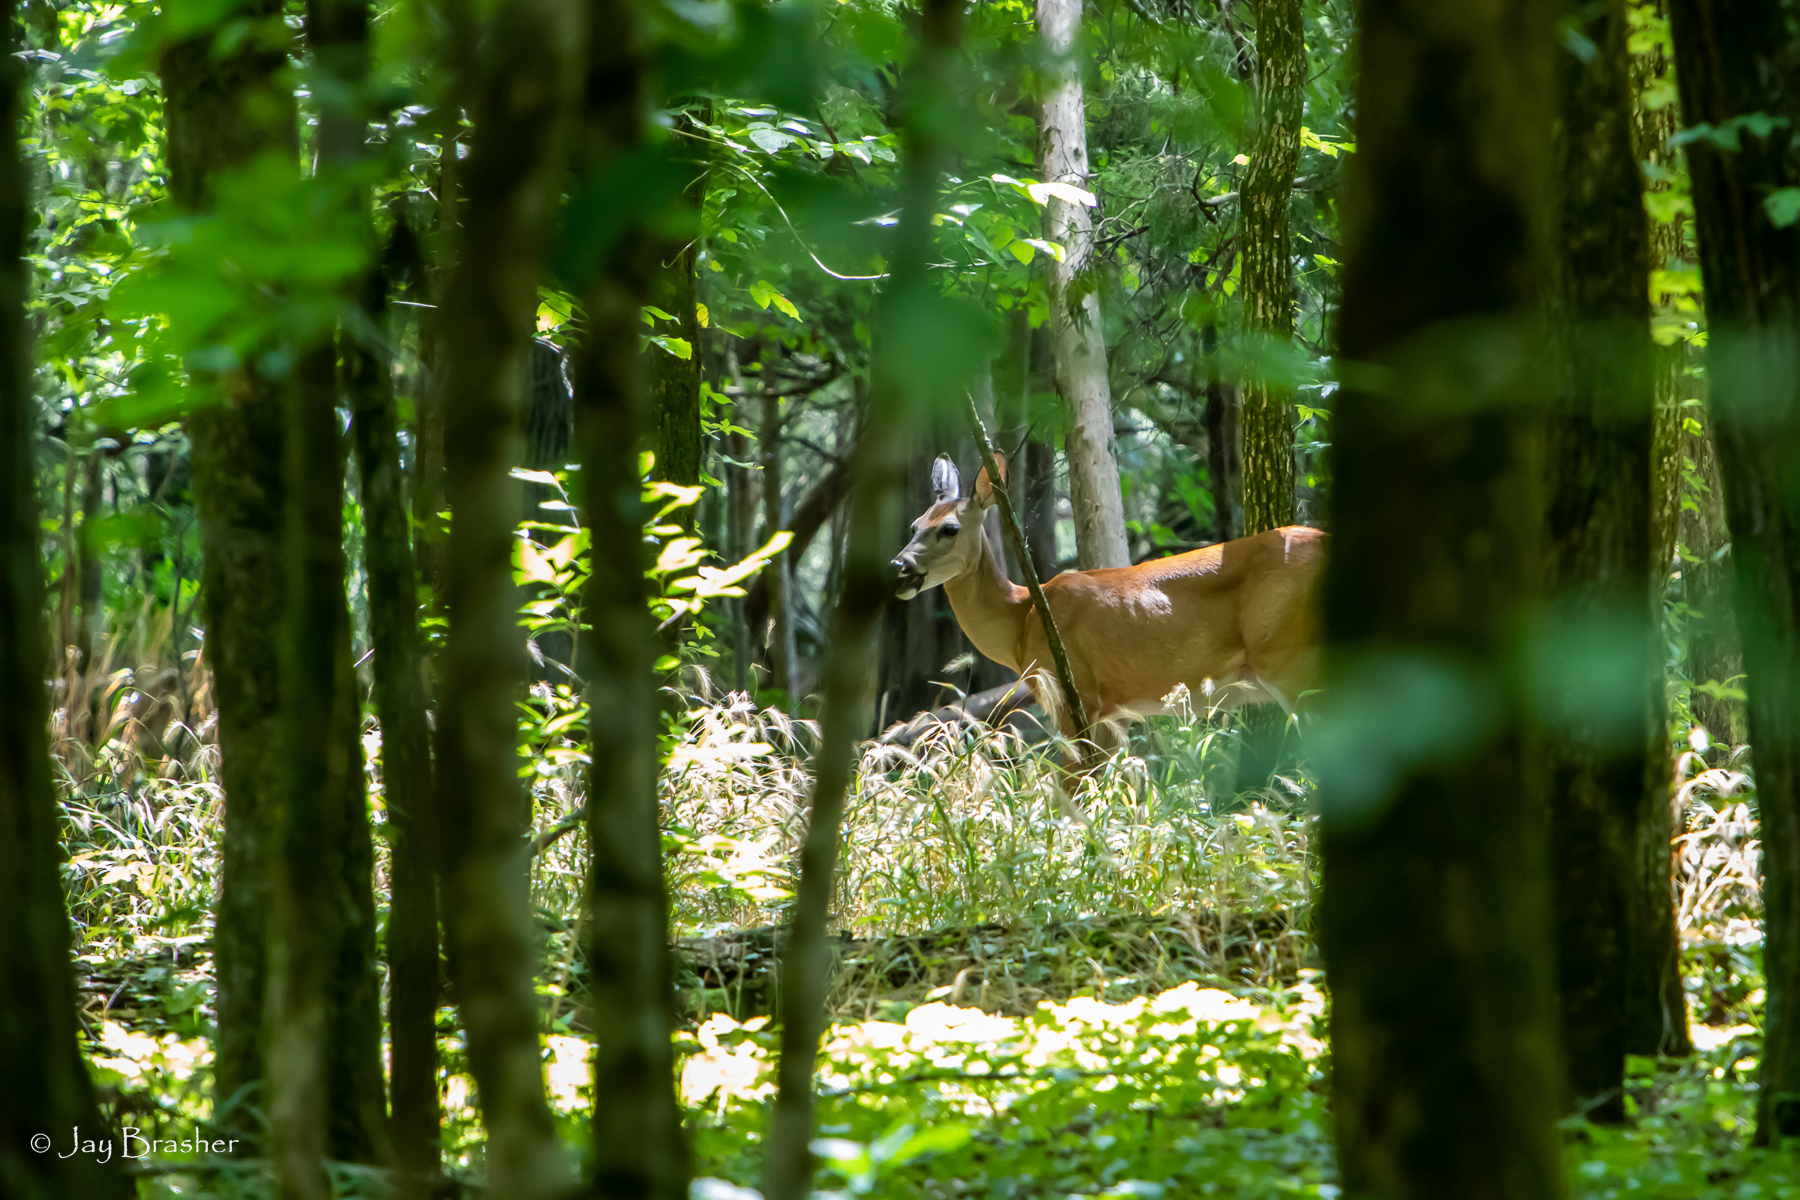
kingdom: Animalia
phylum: Chordata
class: Mammalia
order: Artiodactyla
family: Cervidae
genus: Odocoileus
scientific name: Odocoileus virginianus
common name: White-tailed deer
